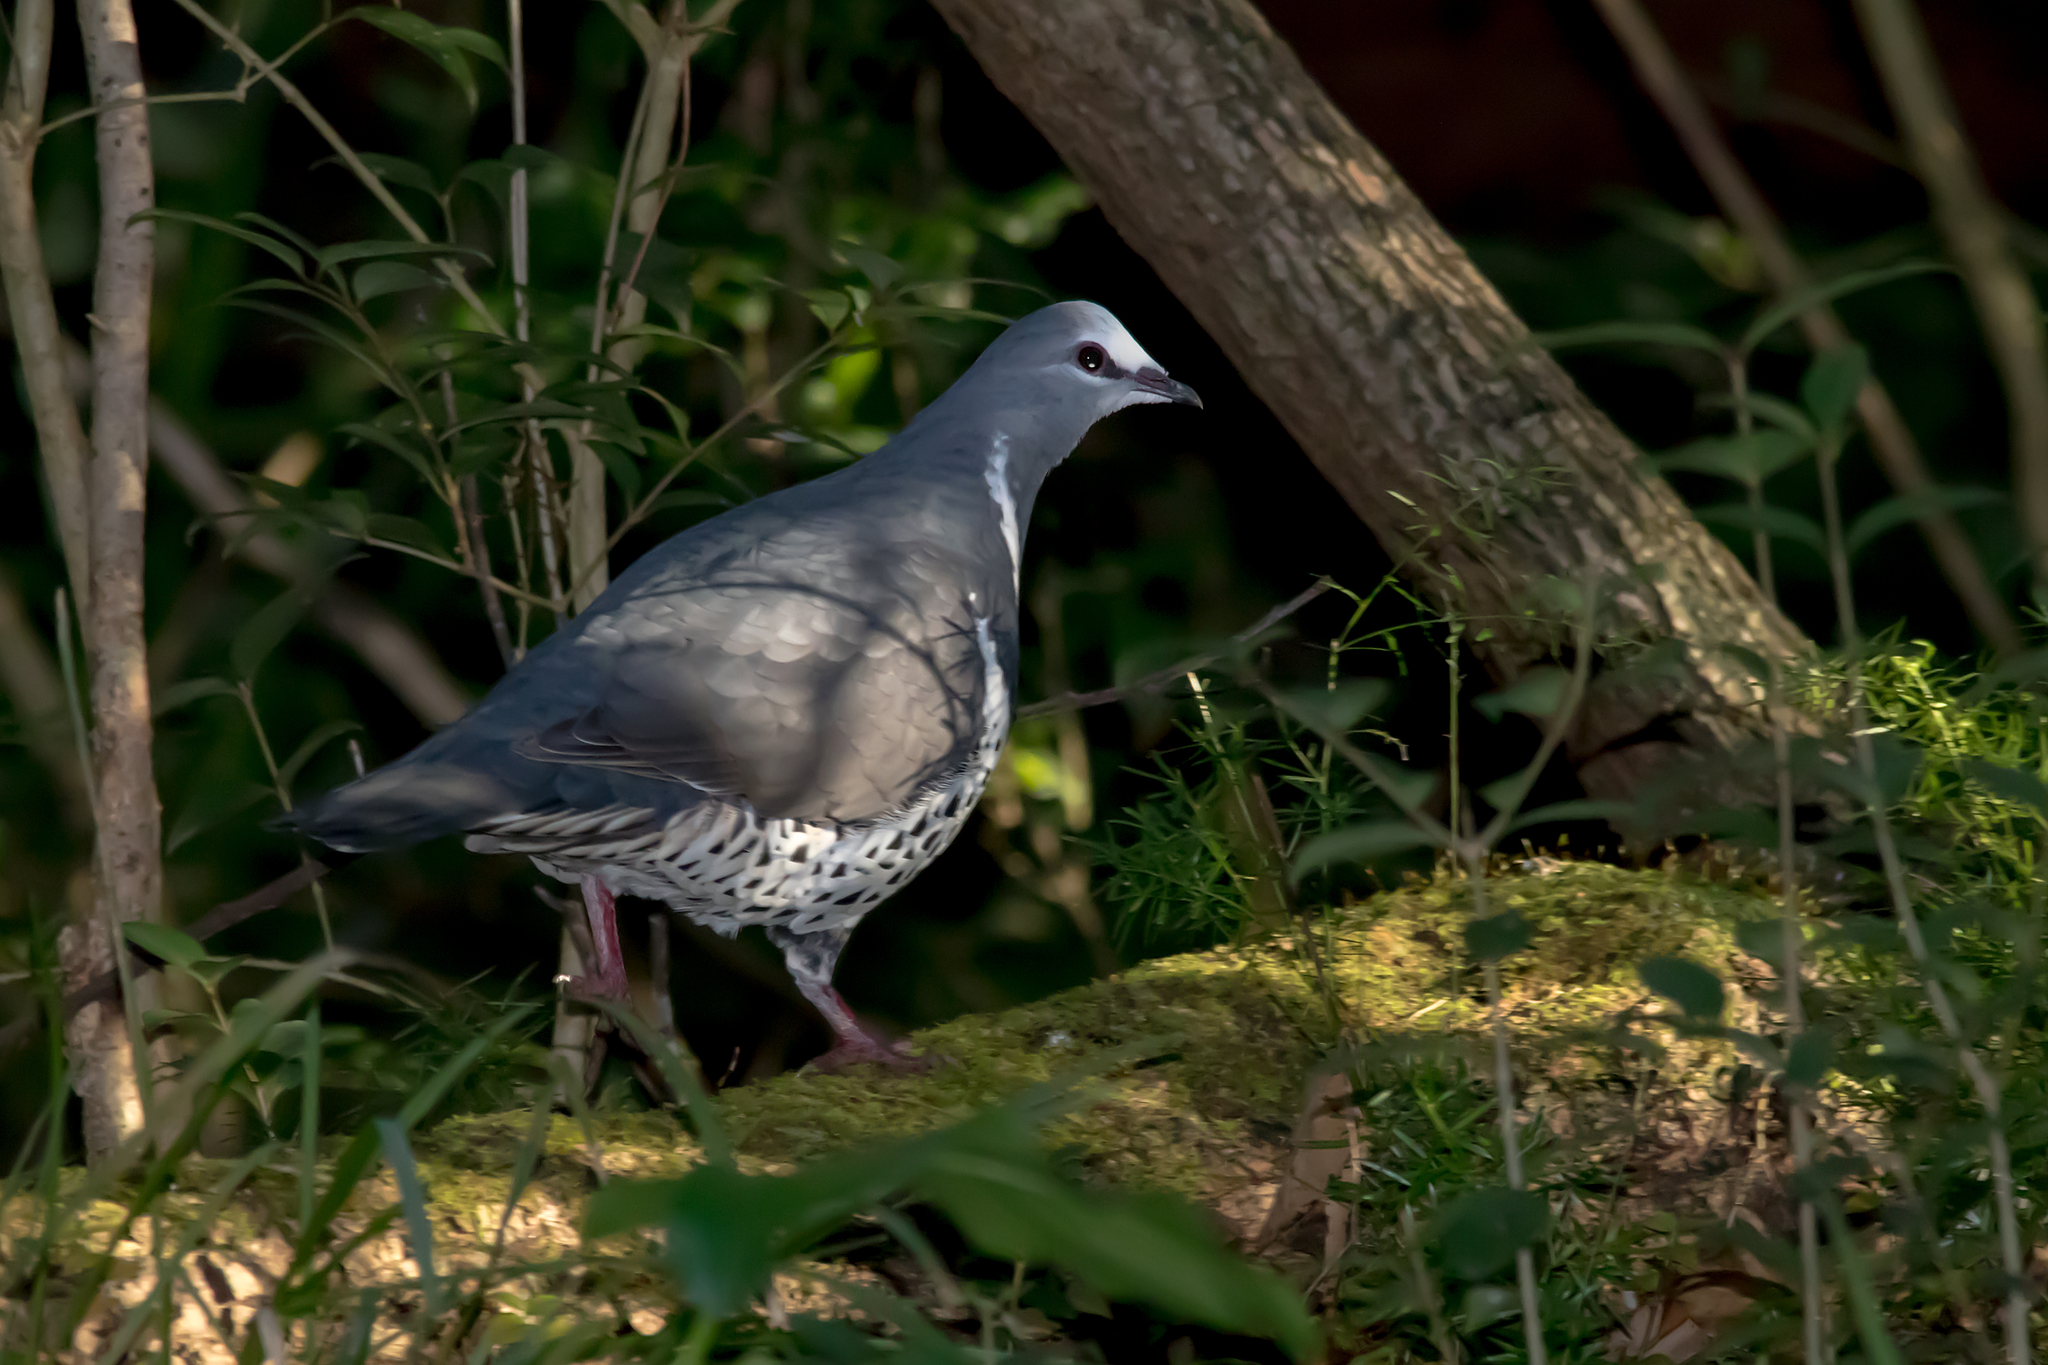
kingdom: Animalia
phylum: Chordata
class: Aves
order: Columbiformes
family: Columbidae
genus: Leucosarcia
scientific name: Leucosarcia melanoleuca
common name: Wonga pigeon
